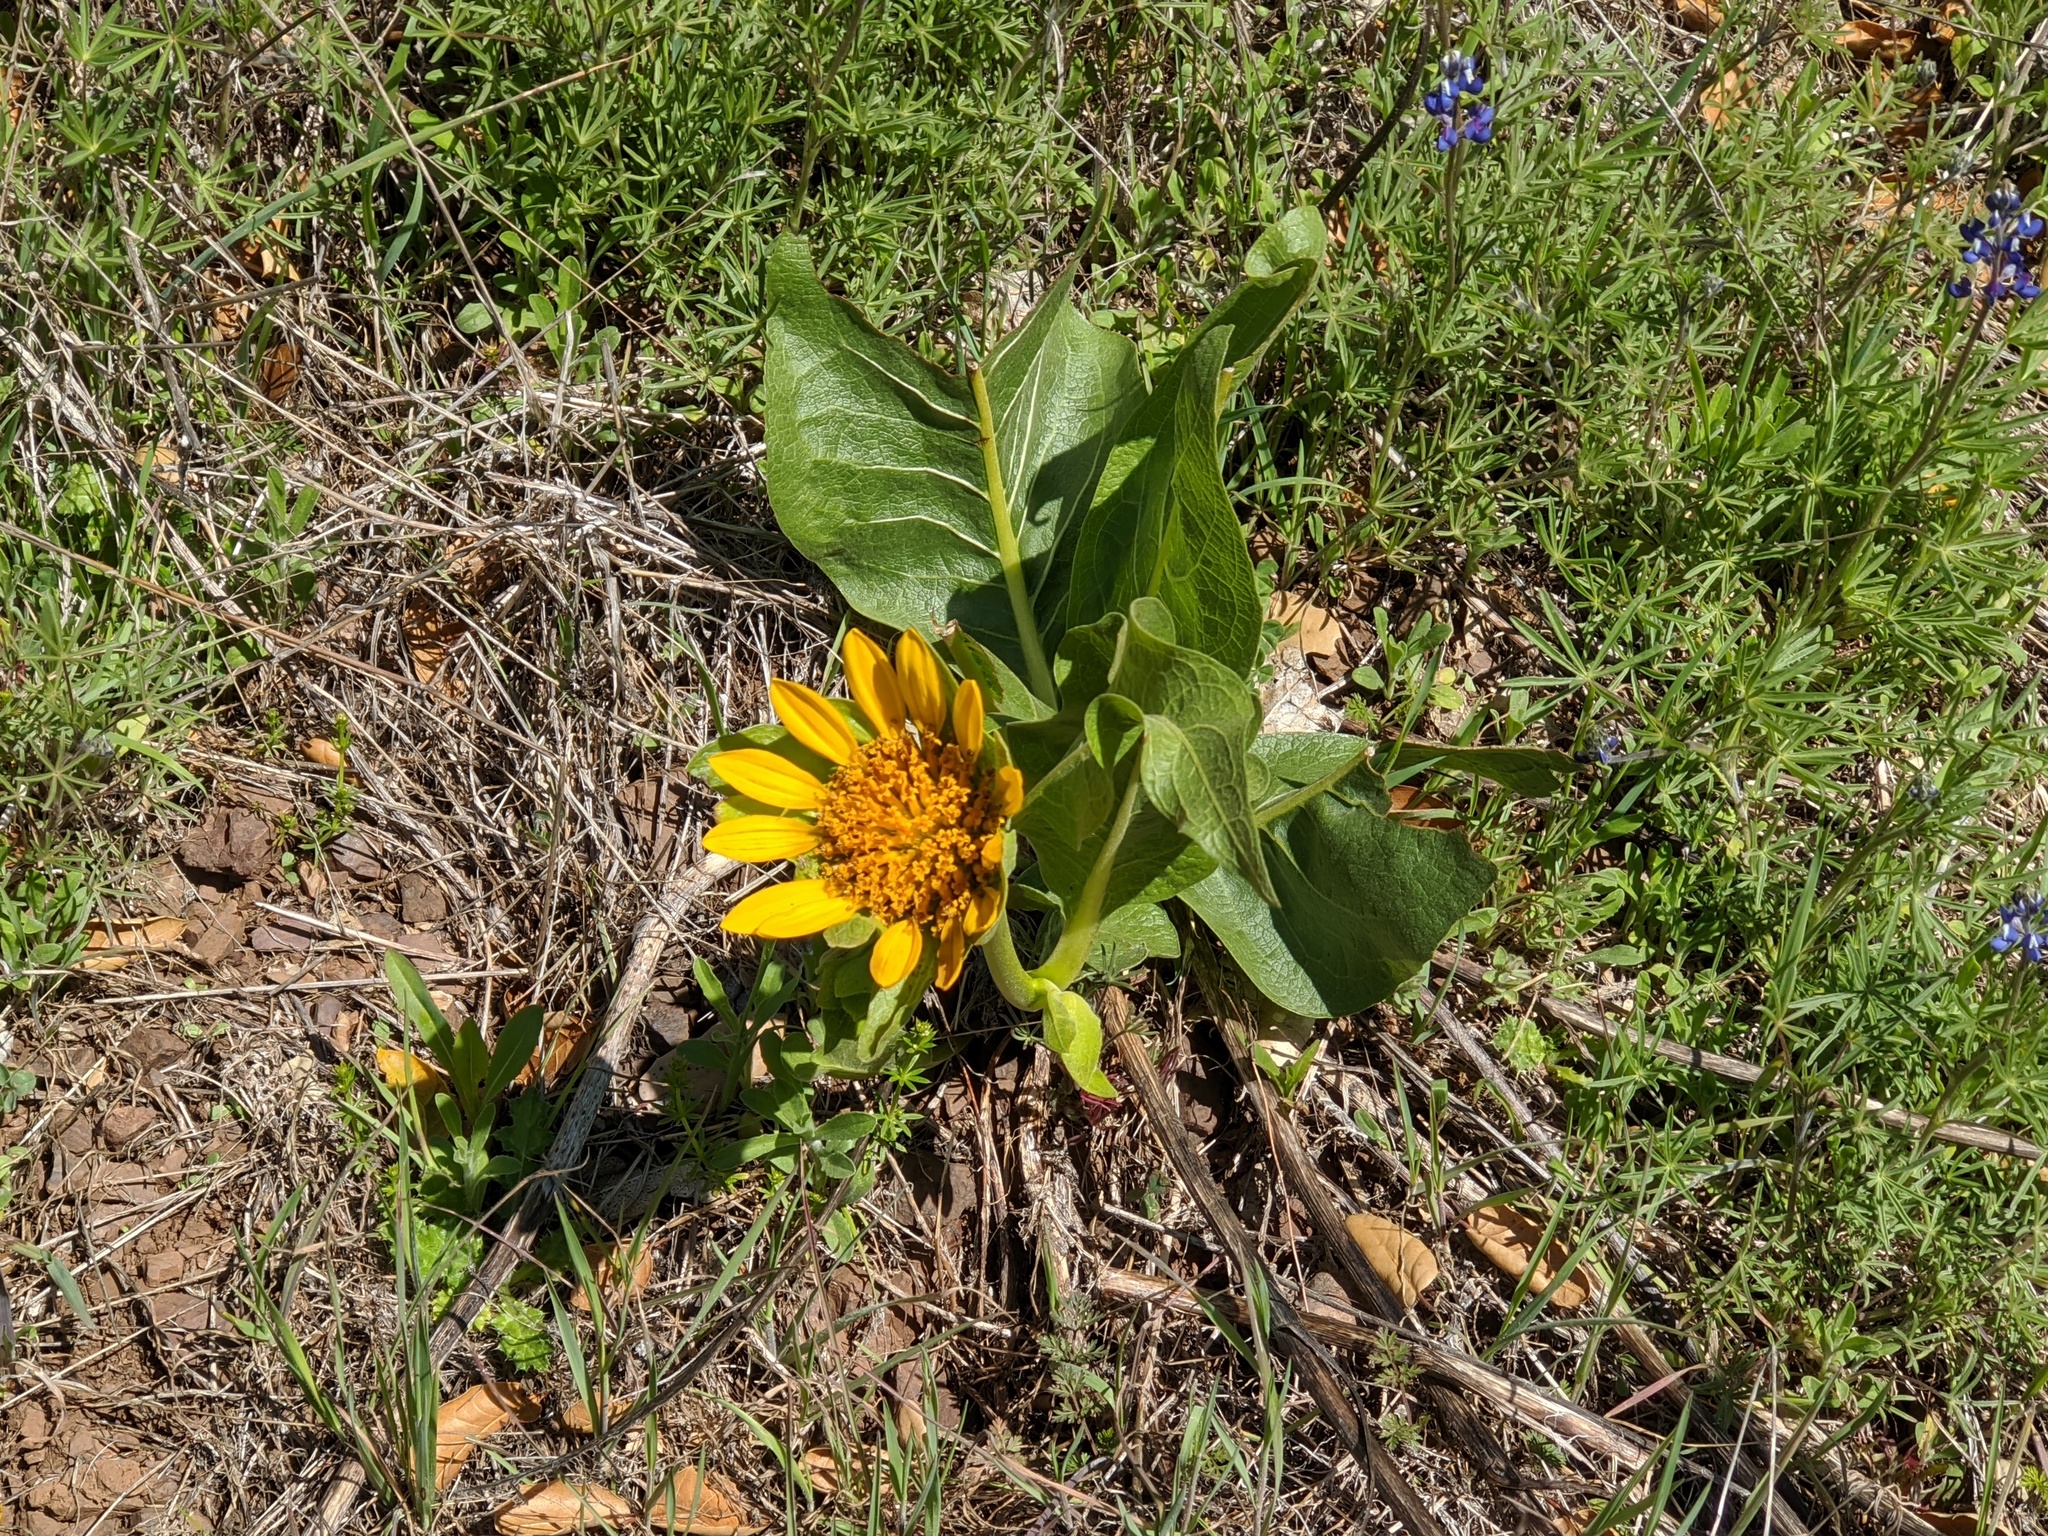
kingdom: Plantae
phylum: Tracheophyta
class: Magnoliopsida
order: Asterales
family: Asteraceae
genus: Wyethia
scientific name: Wyethia glabra
